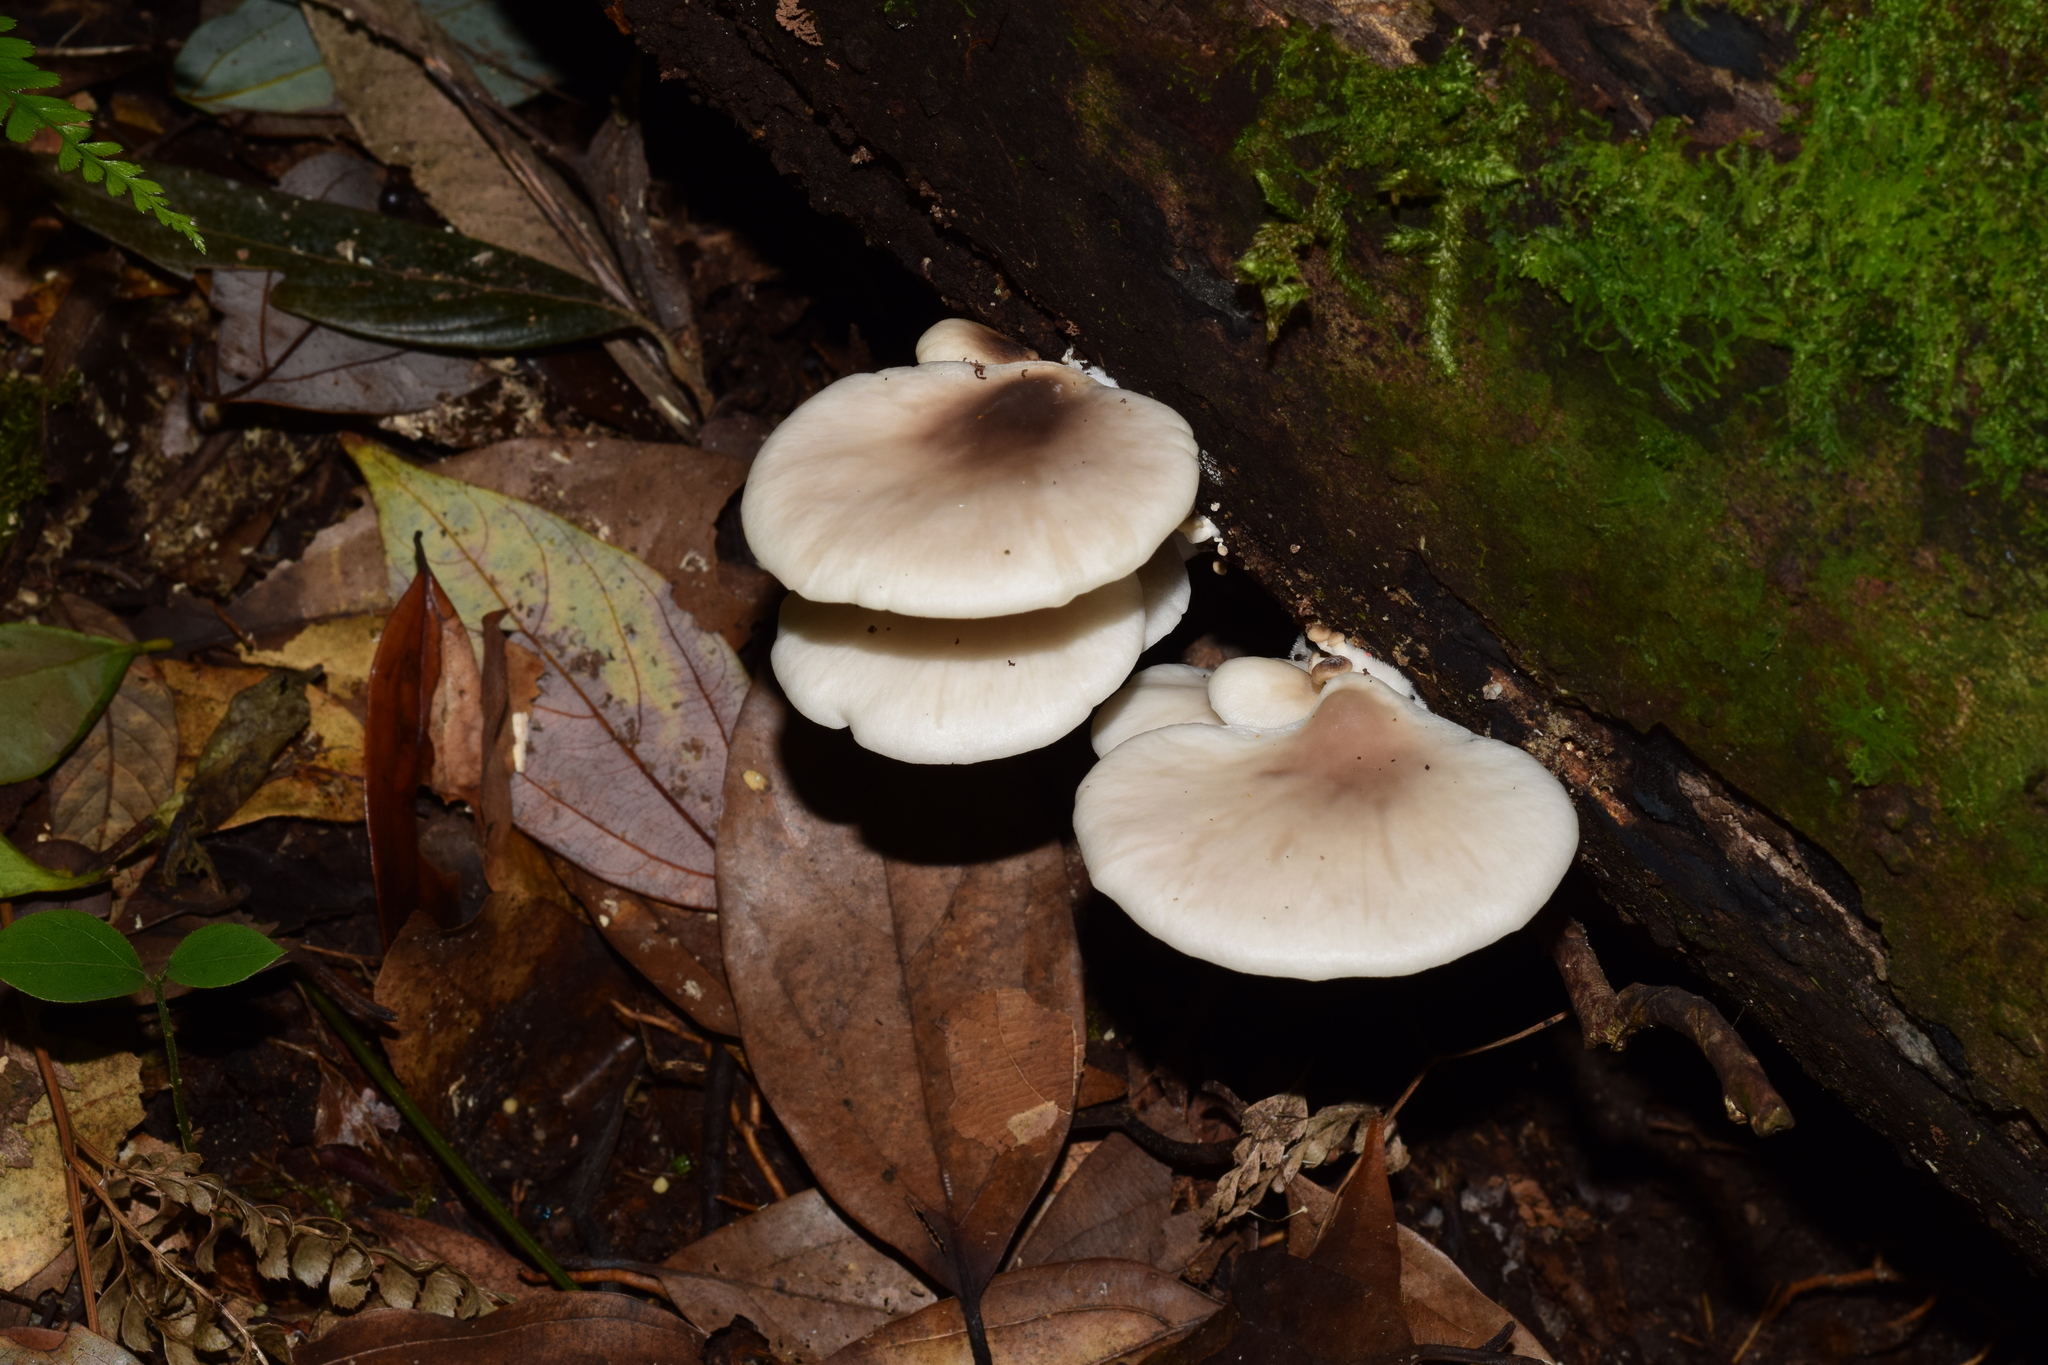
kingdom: Fungi
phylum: Basidiomycota
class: Agaricomycetes
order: Agaricales
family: Pleurotaceae
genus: Pleurotus
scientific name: Pleurotus pulmonarius
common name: Pale oyster
